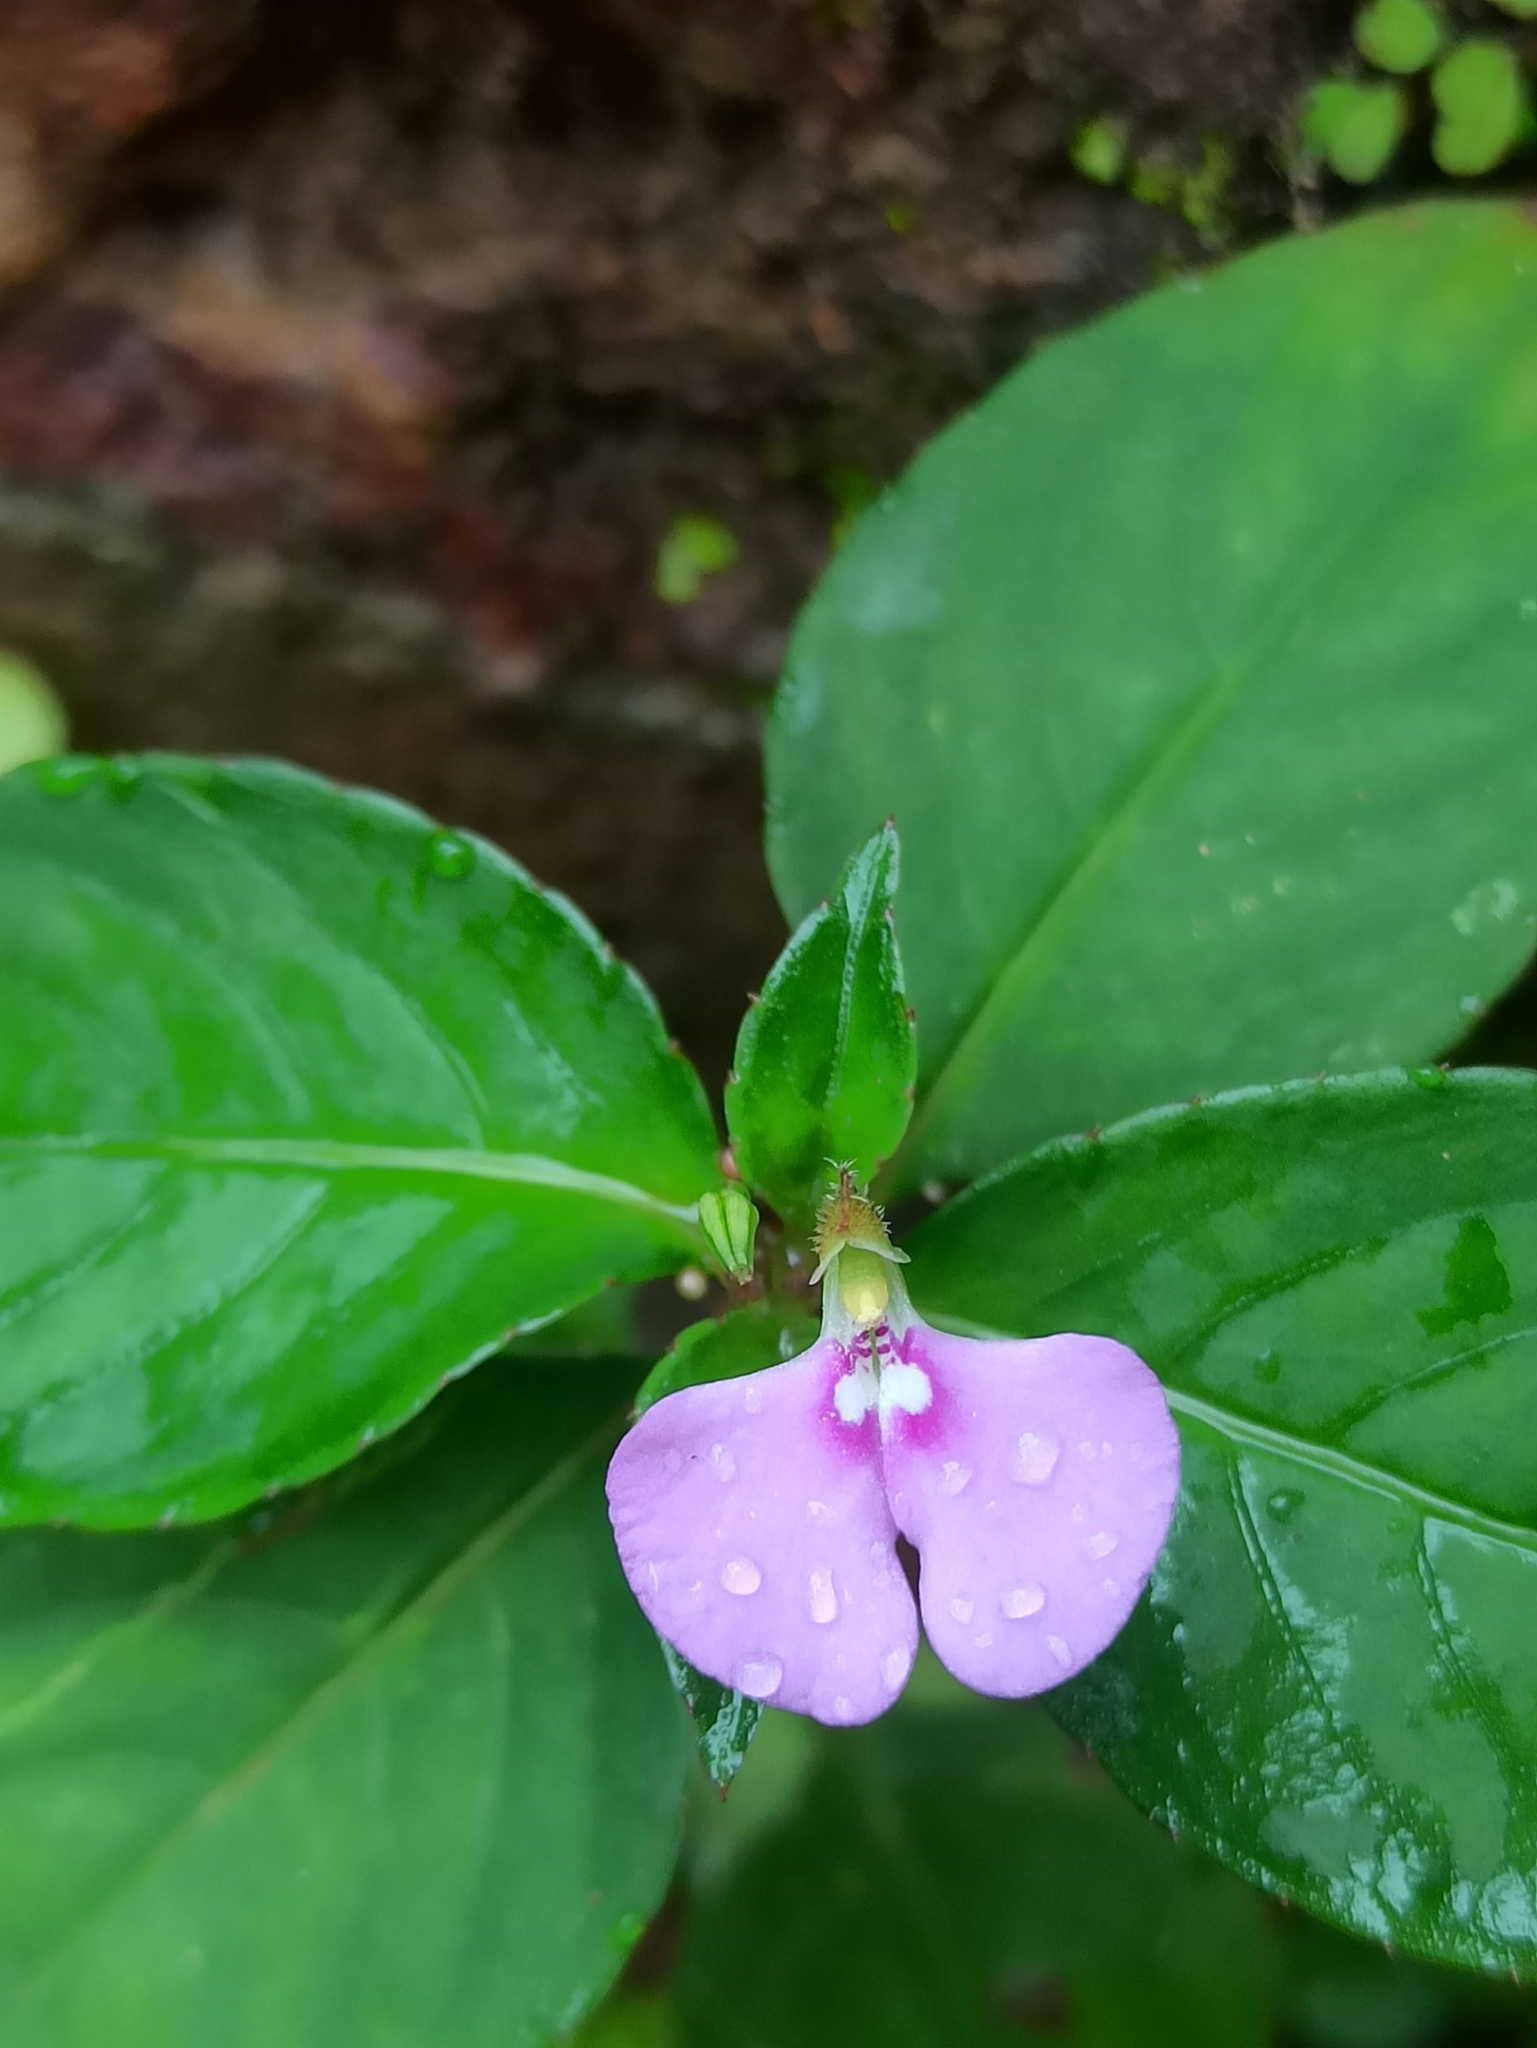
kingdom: Plantae
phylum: Tracheophyta
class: Magnoliopsida
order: Ericales
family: Balsaminaceae
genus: Impatiens
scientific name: Impatiens minor
